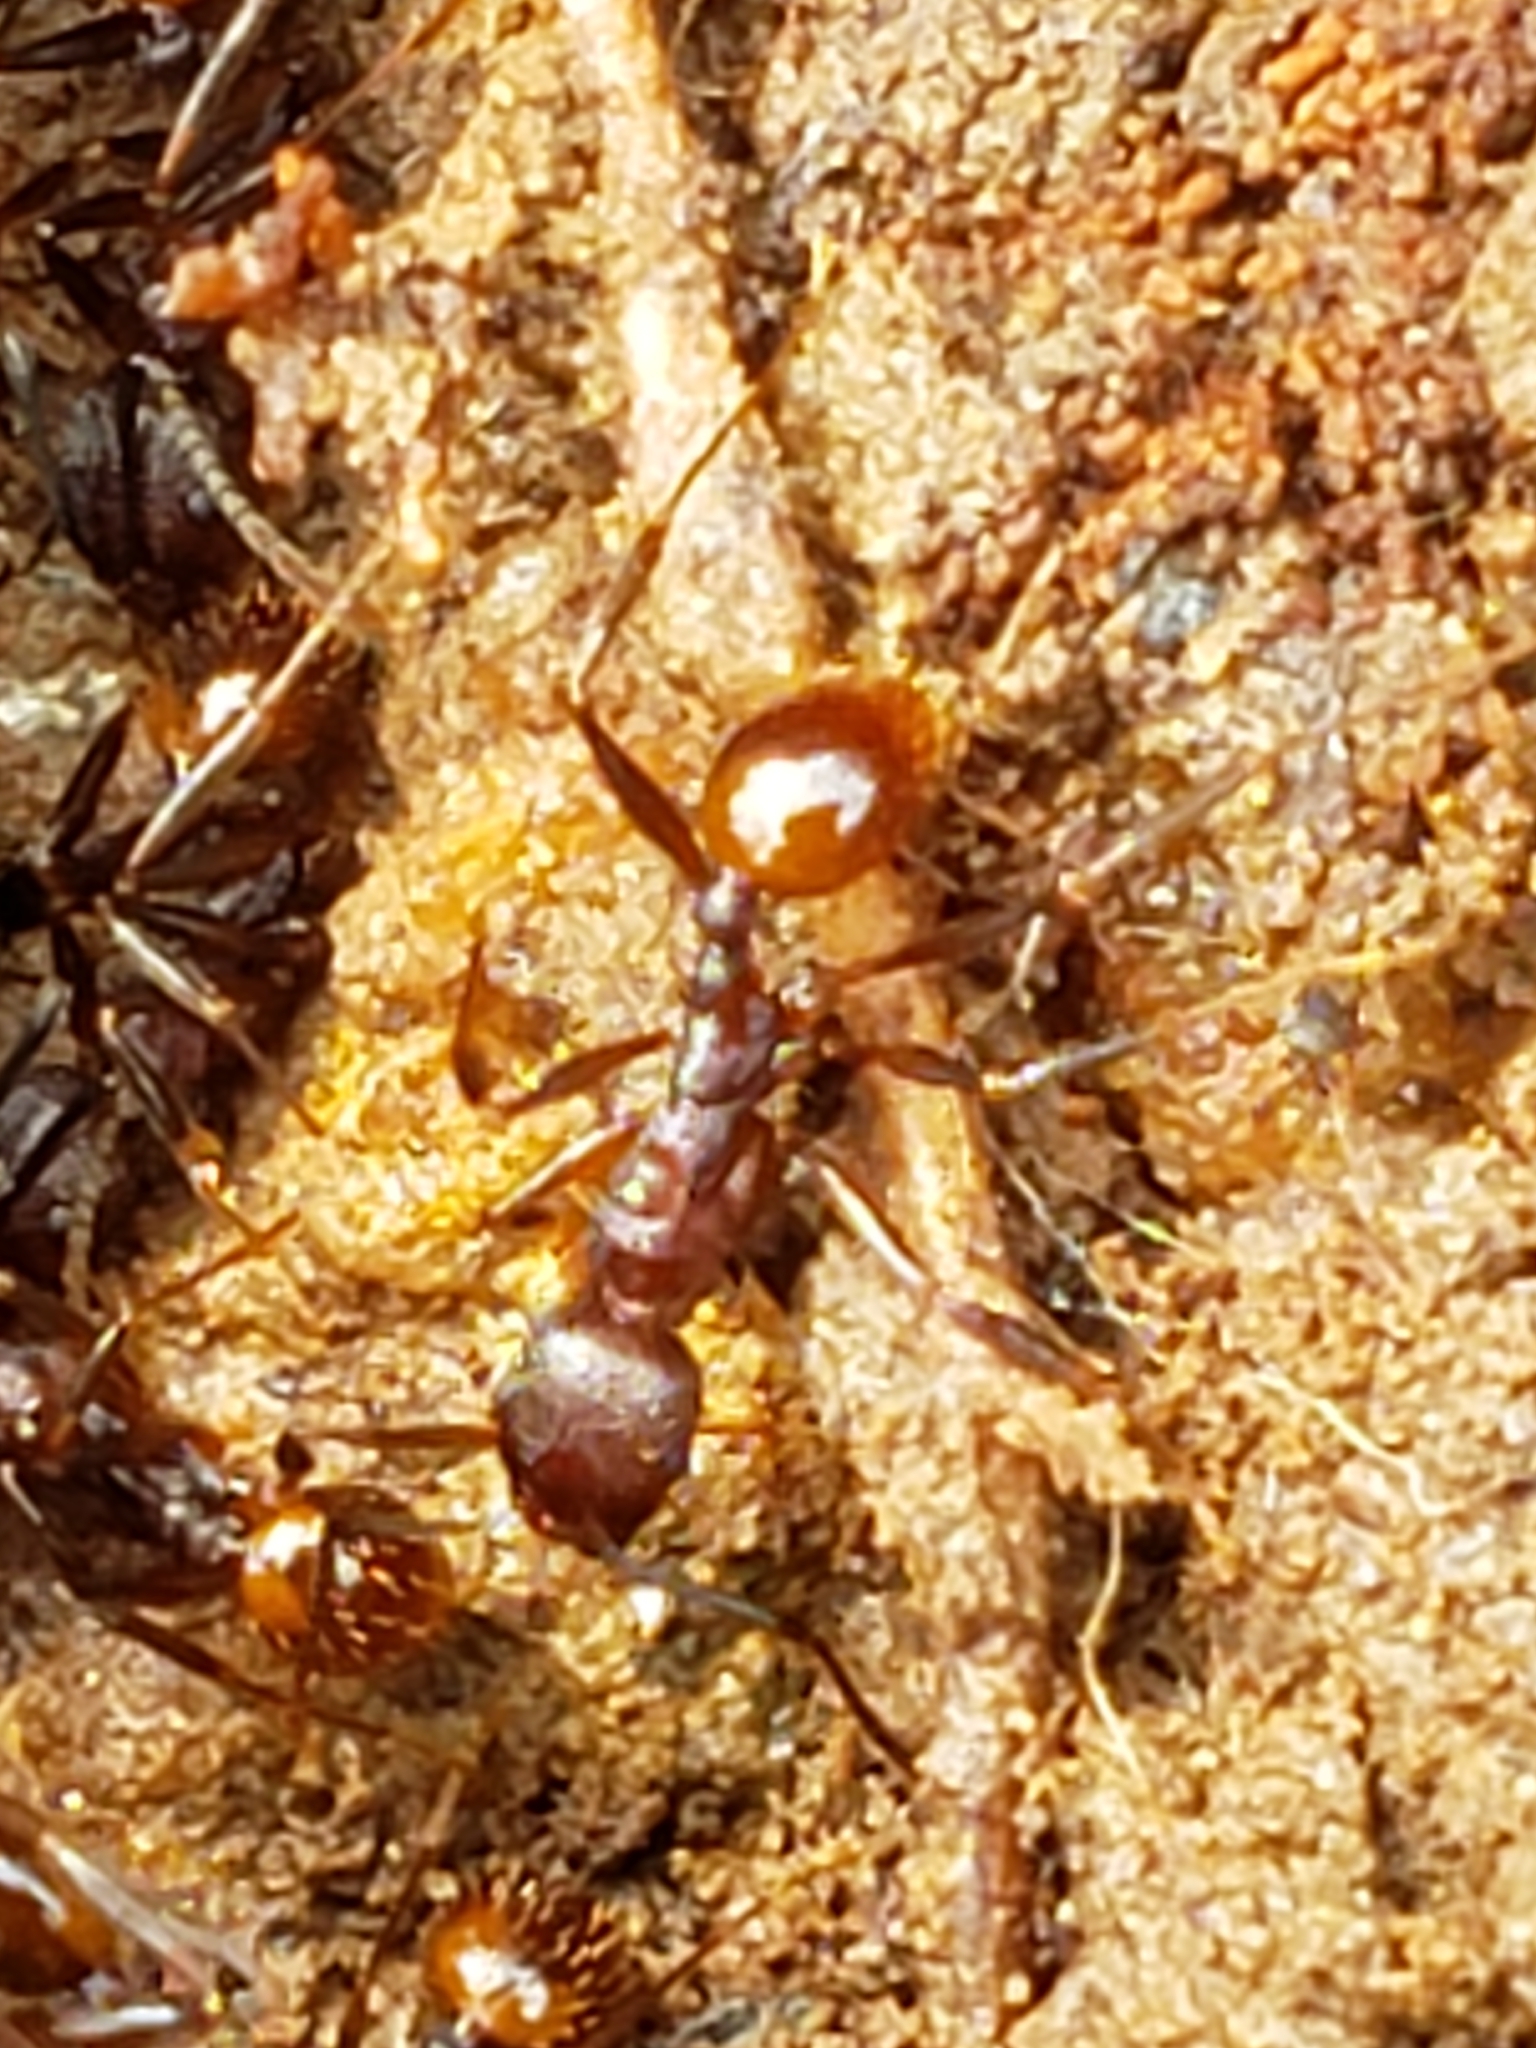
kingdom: Animalia
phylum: Arthropoda
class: Insecta
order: Hymenoptera
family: Formicidae
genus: Aphaenogaster
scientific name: Aphaenogaster fulva
